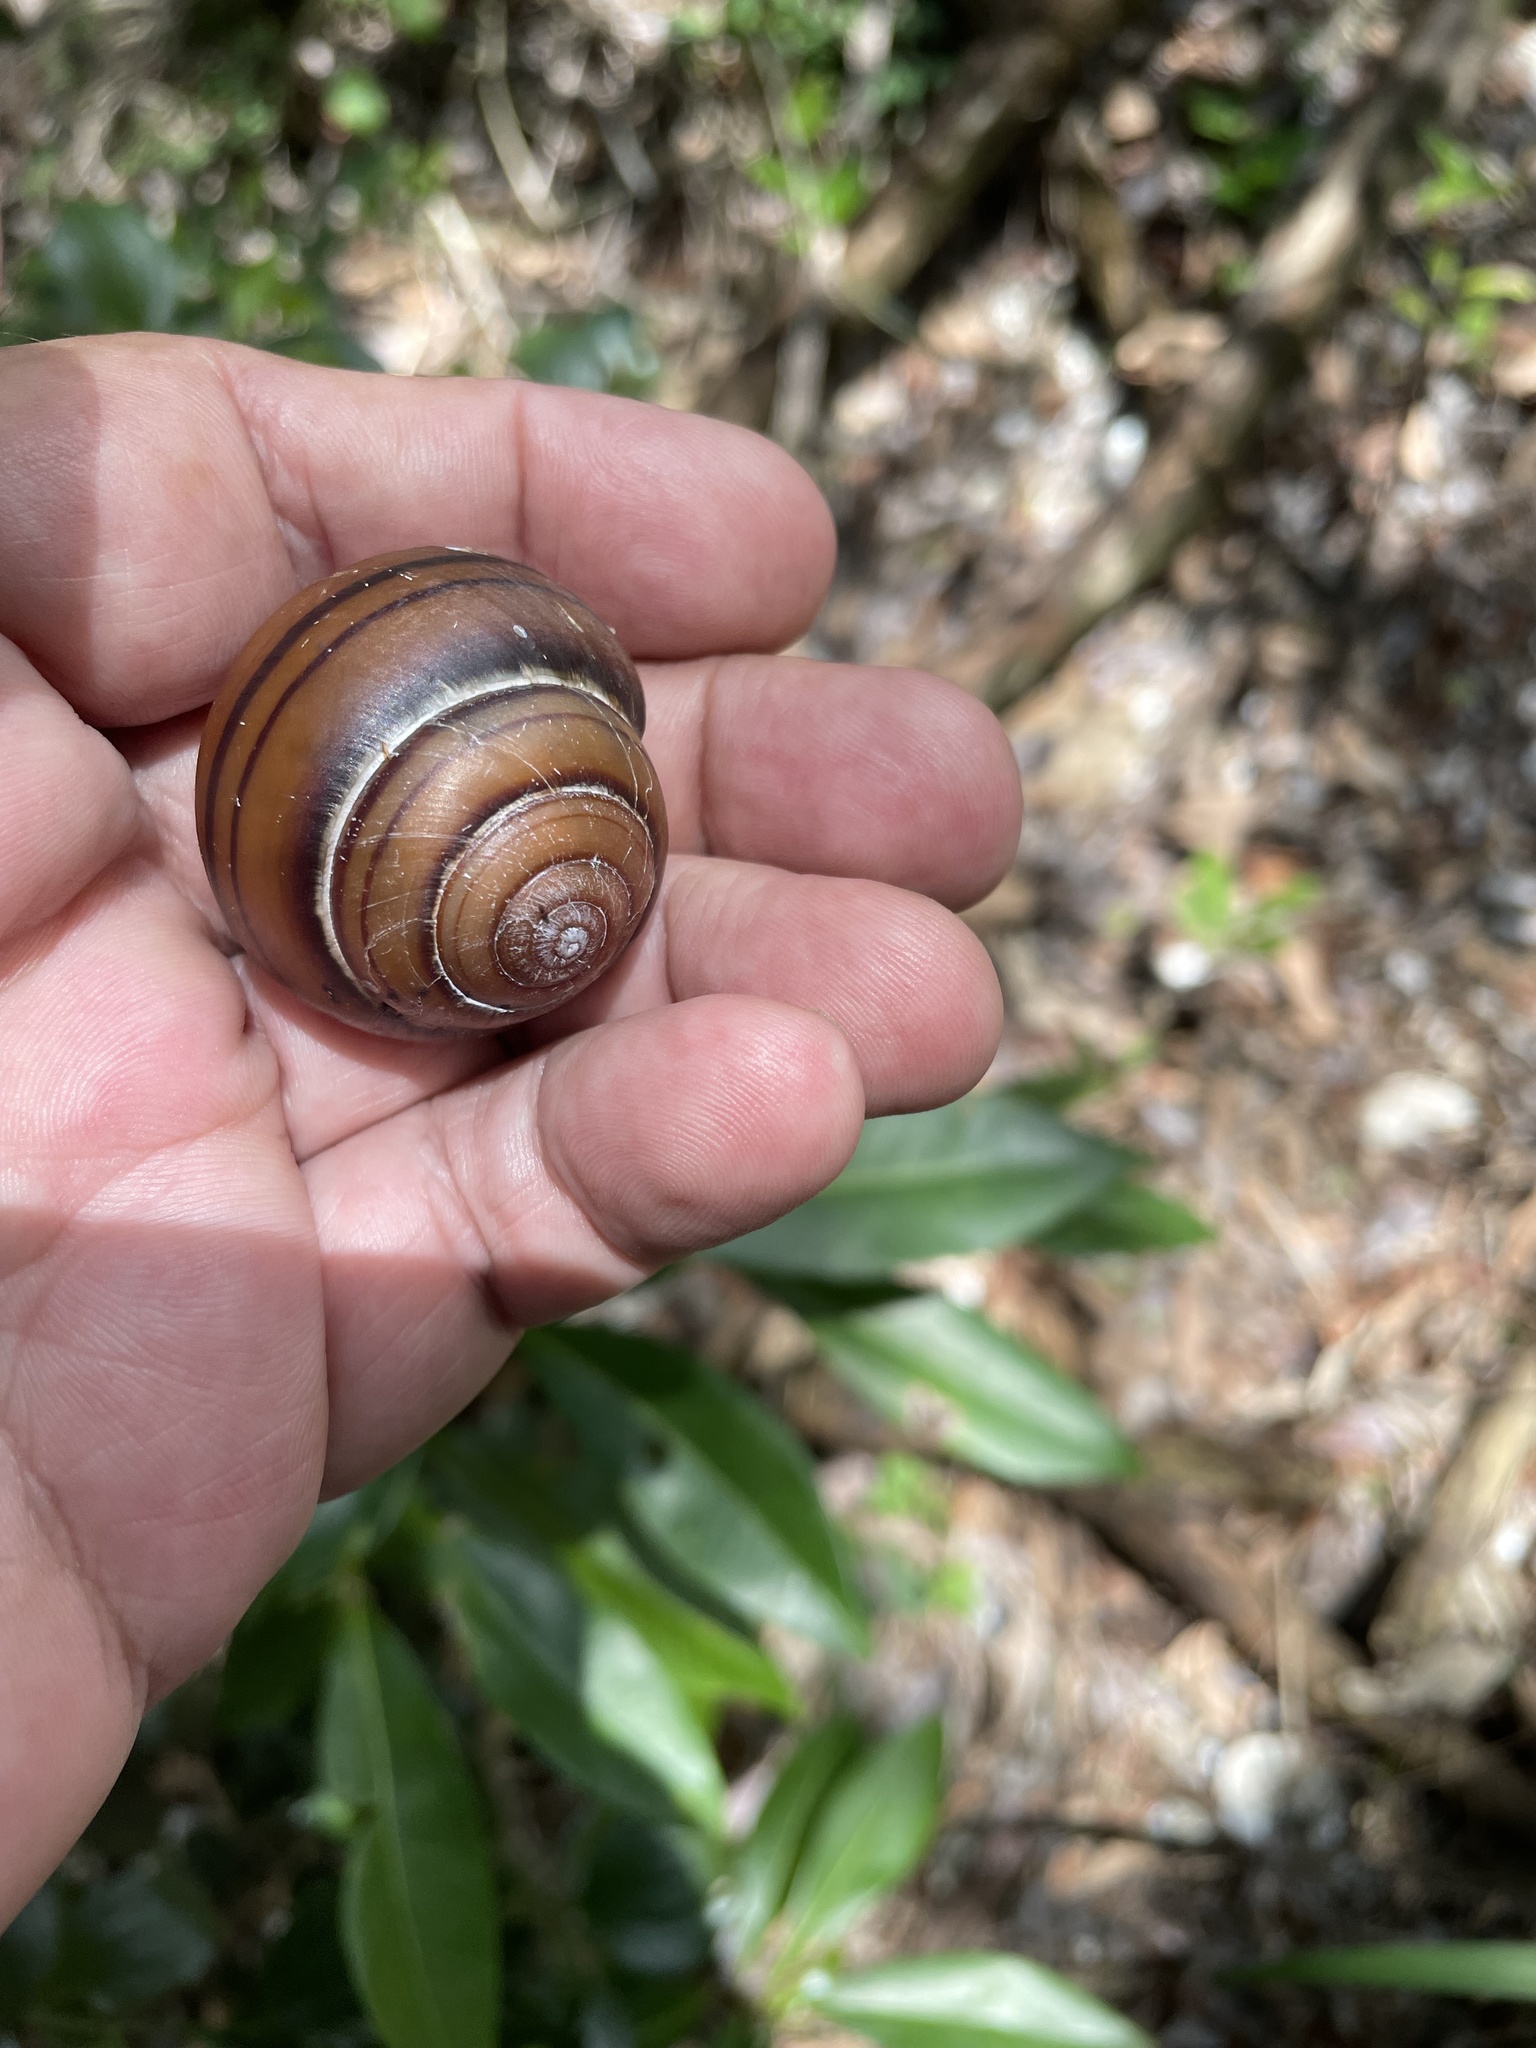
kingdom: Animalia
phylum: Mollusca
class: Gastropoda
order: Stylommatophora
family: Camaenidae
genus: Sphaerospira
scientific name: Sphaerospira fraseri
